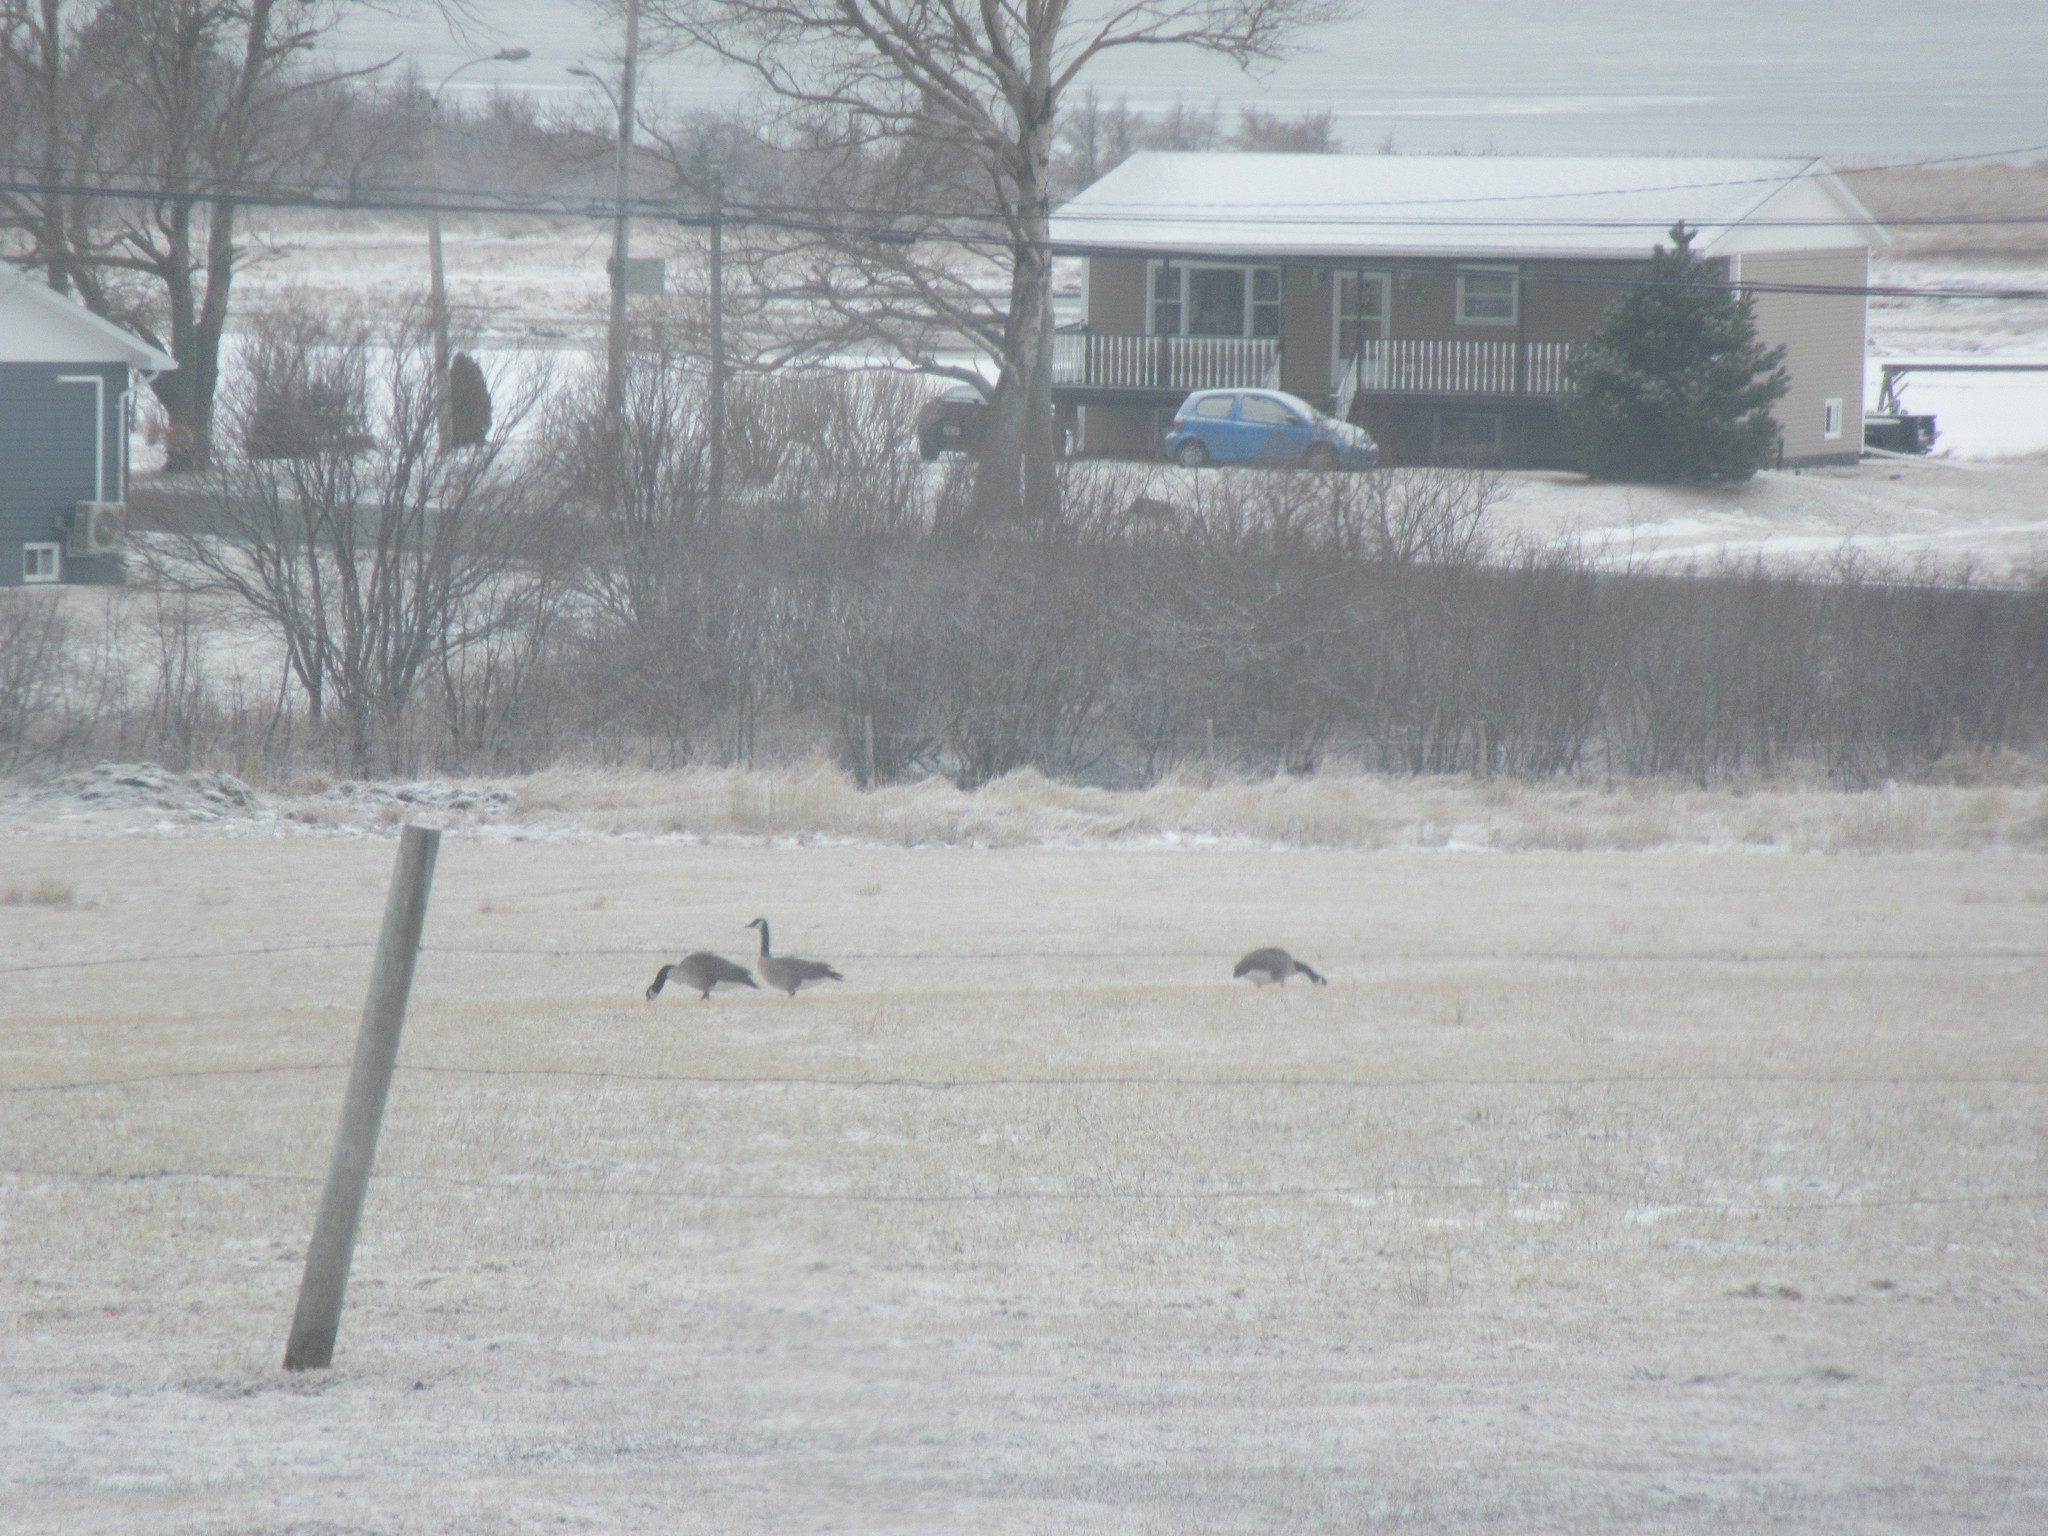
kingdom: Animalia
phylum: Chordata
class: Aves
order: Anseriformes
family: Anatidae
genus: Branta
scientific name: Branta canadensis
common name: Canada goose
